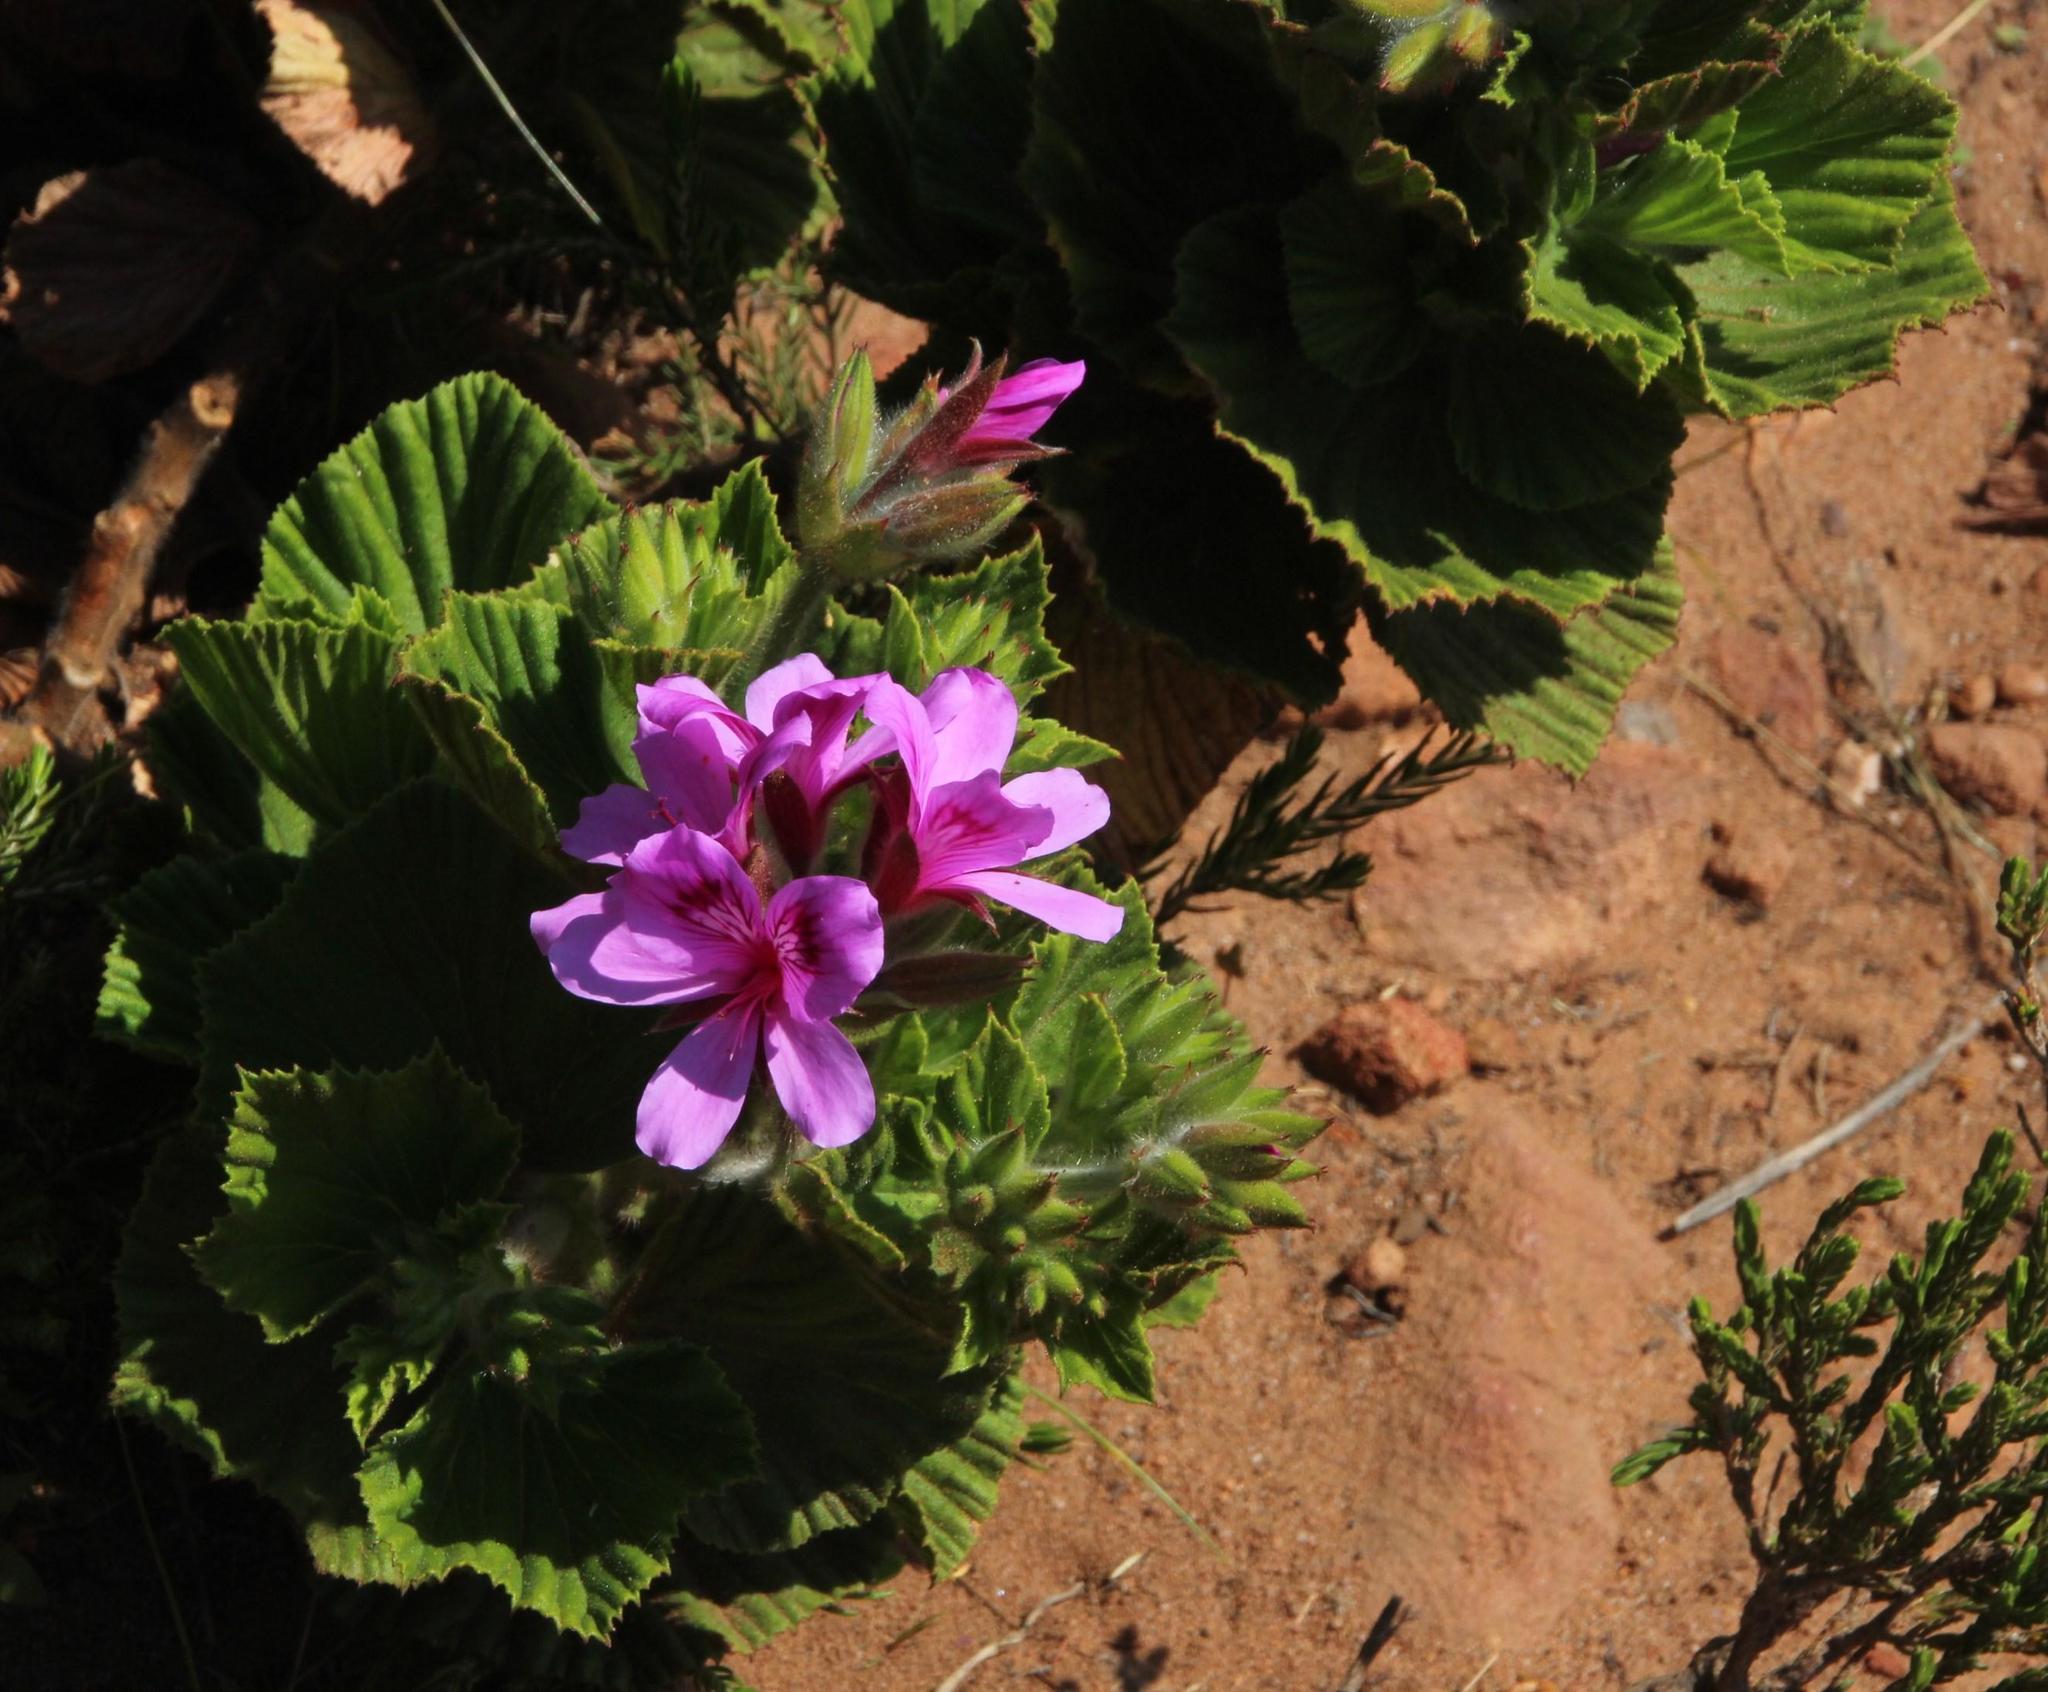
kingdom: Plantae
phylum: Tracheophyta
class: Magnoliopsida
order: Geraniales
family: Geraniaceae
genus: Pelargonium
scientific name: Pelargonium cucullatum
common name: Tree pelargonium
